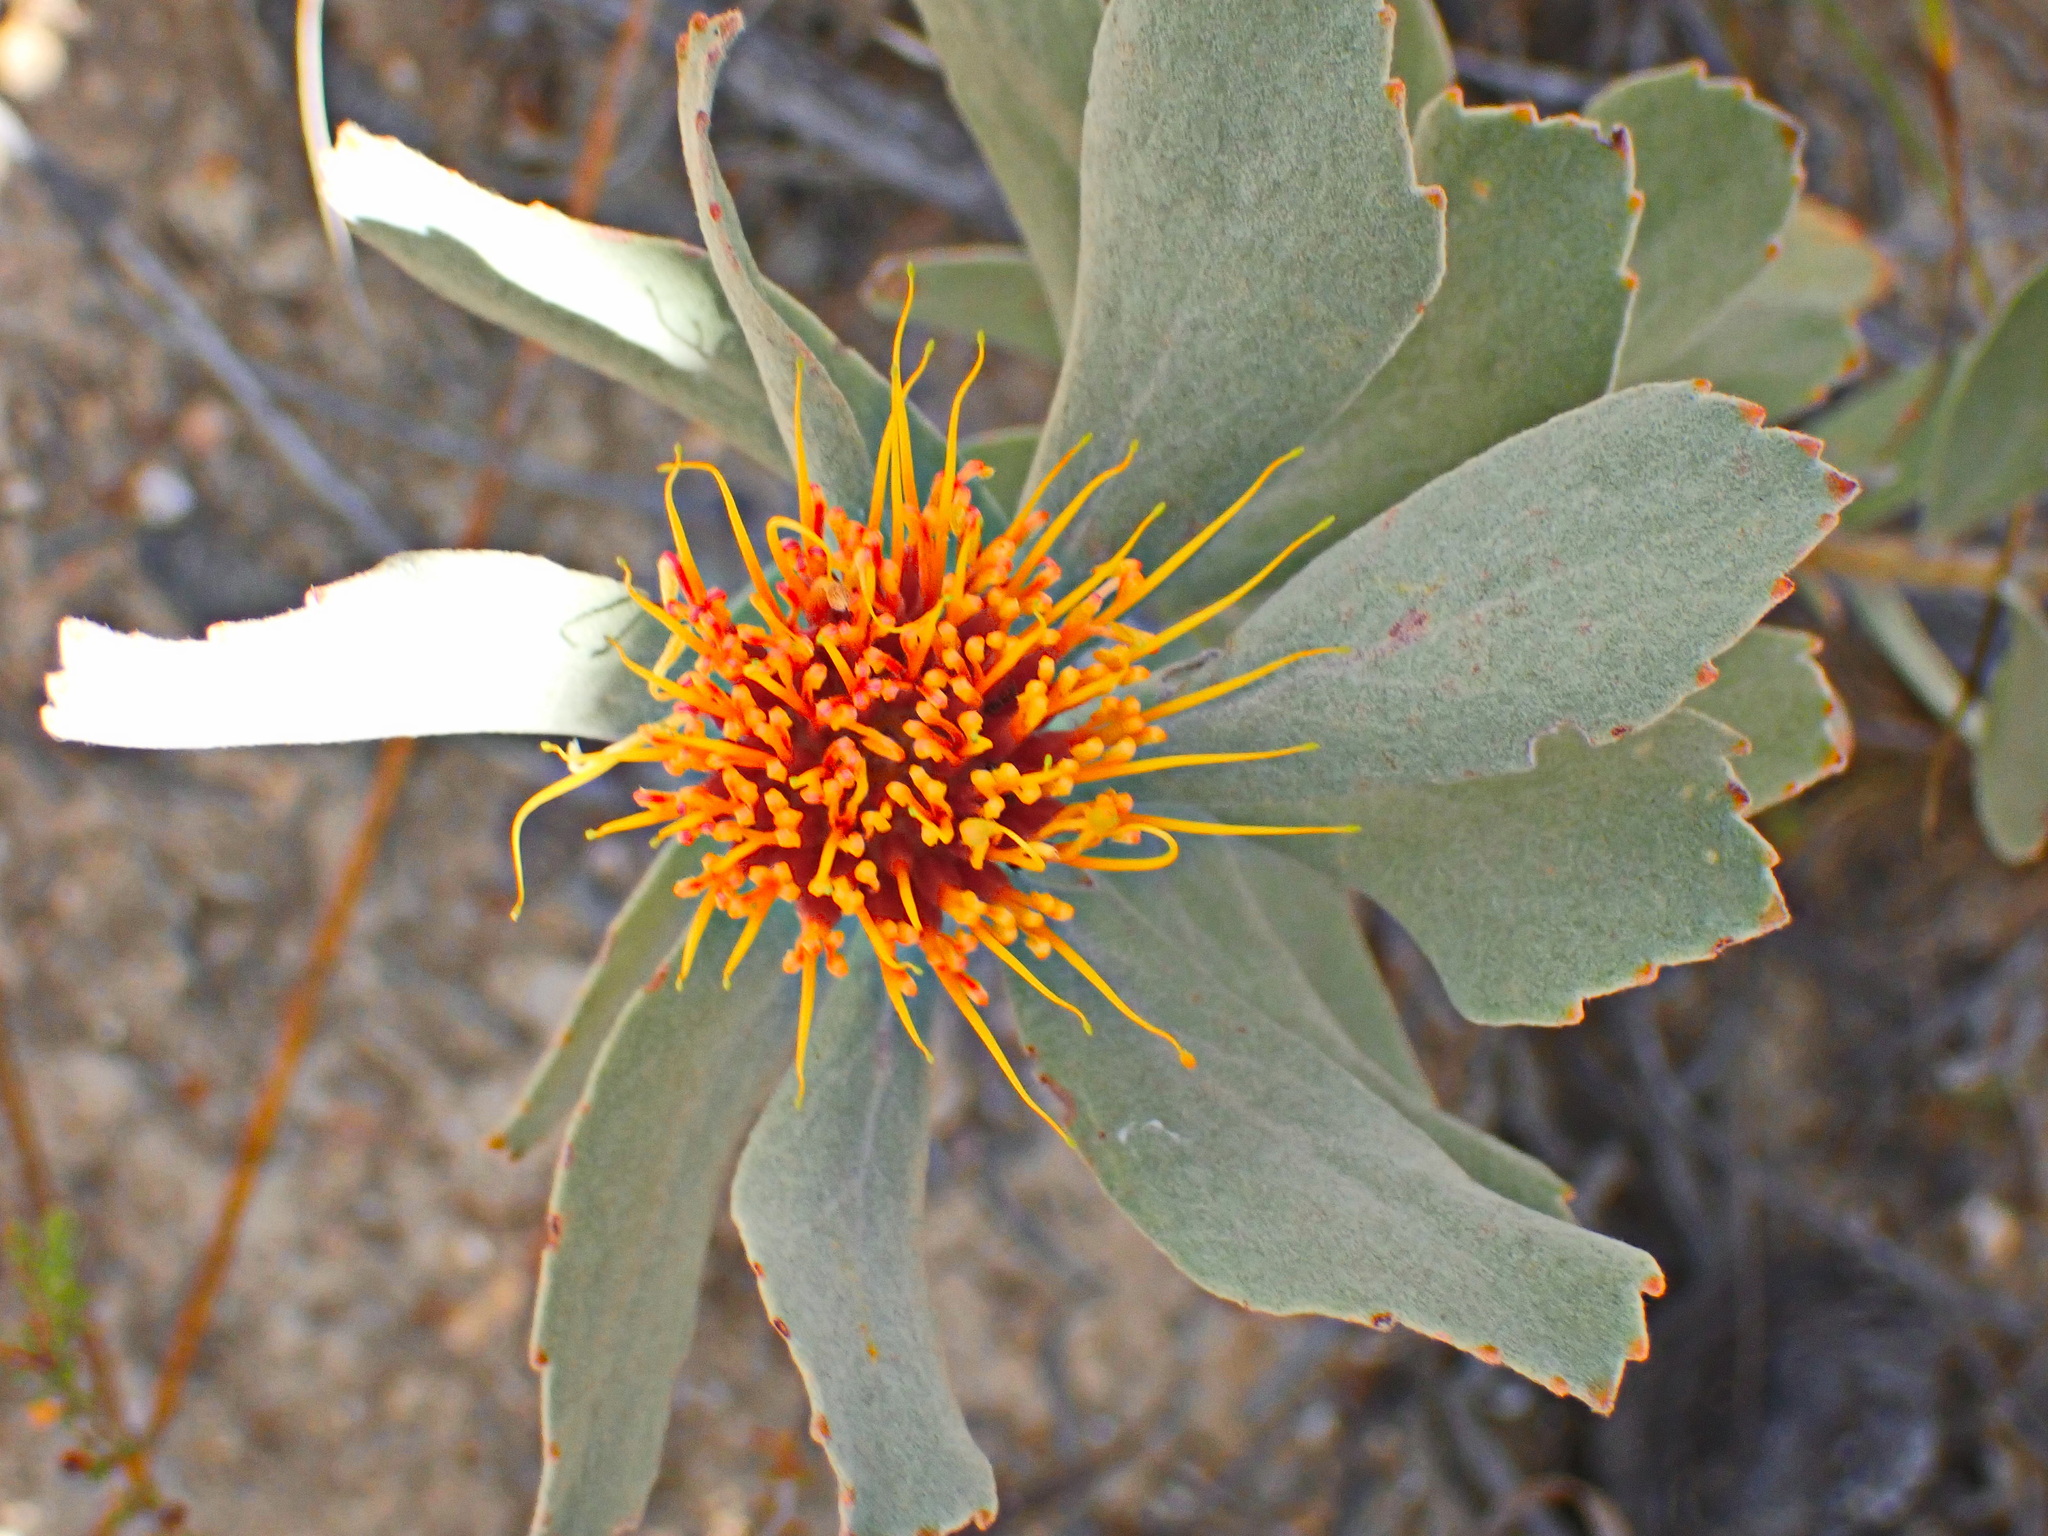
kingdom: Plantae
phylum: Tracheophyta
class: Magnoliopsida
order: Proteales
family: Proteaceae
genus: Leucospermum
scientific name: Leucospermum mundii
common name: Langeberg pincushion
